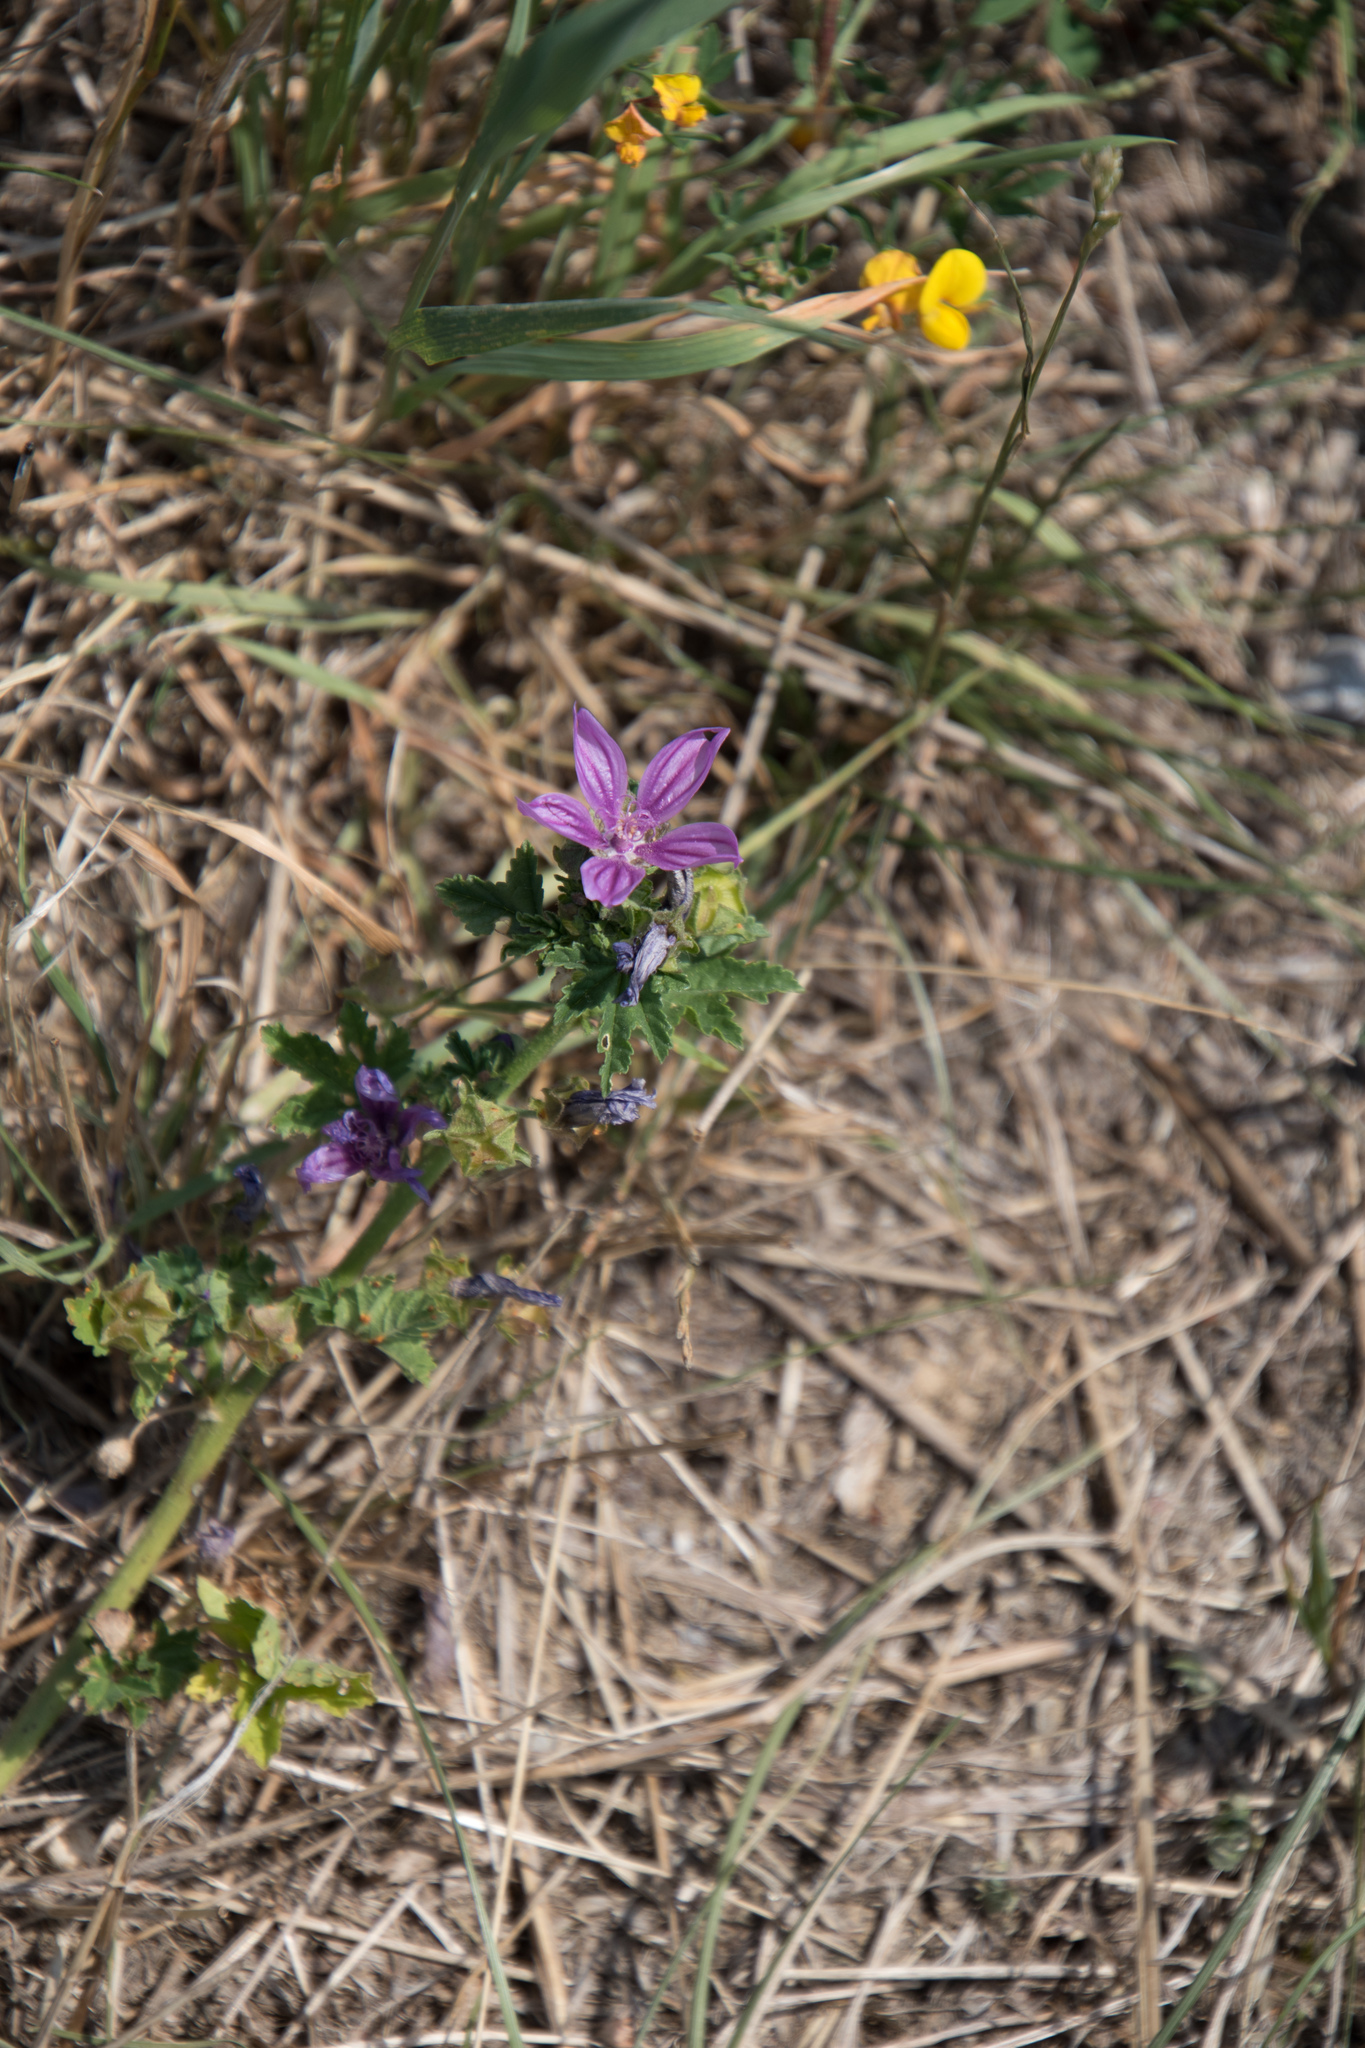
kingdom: Plantae
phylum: Tracheophyta
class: Magnoliopsida
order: Malvales
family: Malvaceae
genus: Malva
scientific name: Malva sylvestris
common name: Common mallow
